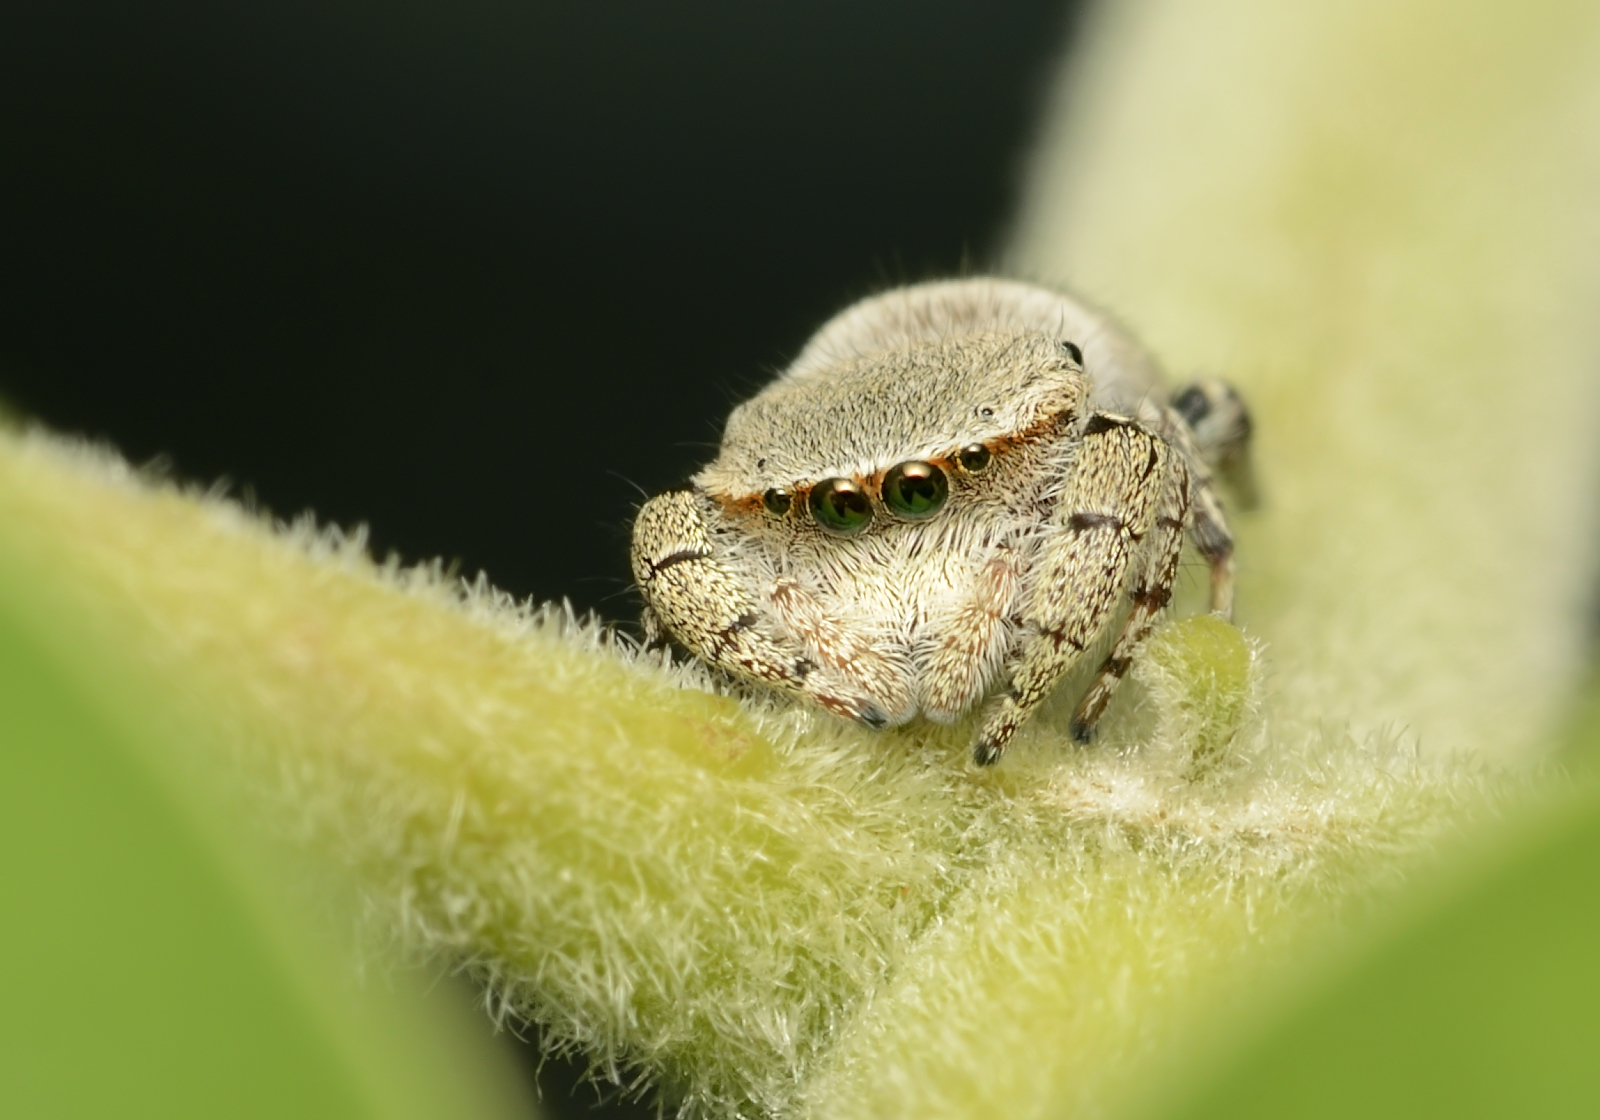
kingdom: Animalia
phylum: Arthropoda
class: Arachnida
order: Araneae
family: Salticidae
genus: Rhene
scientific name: Rhene flavigera
